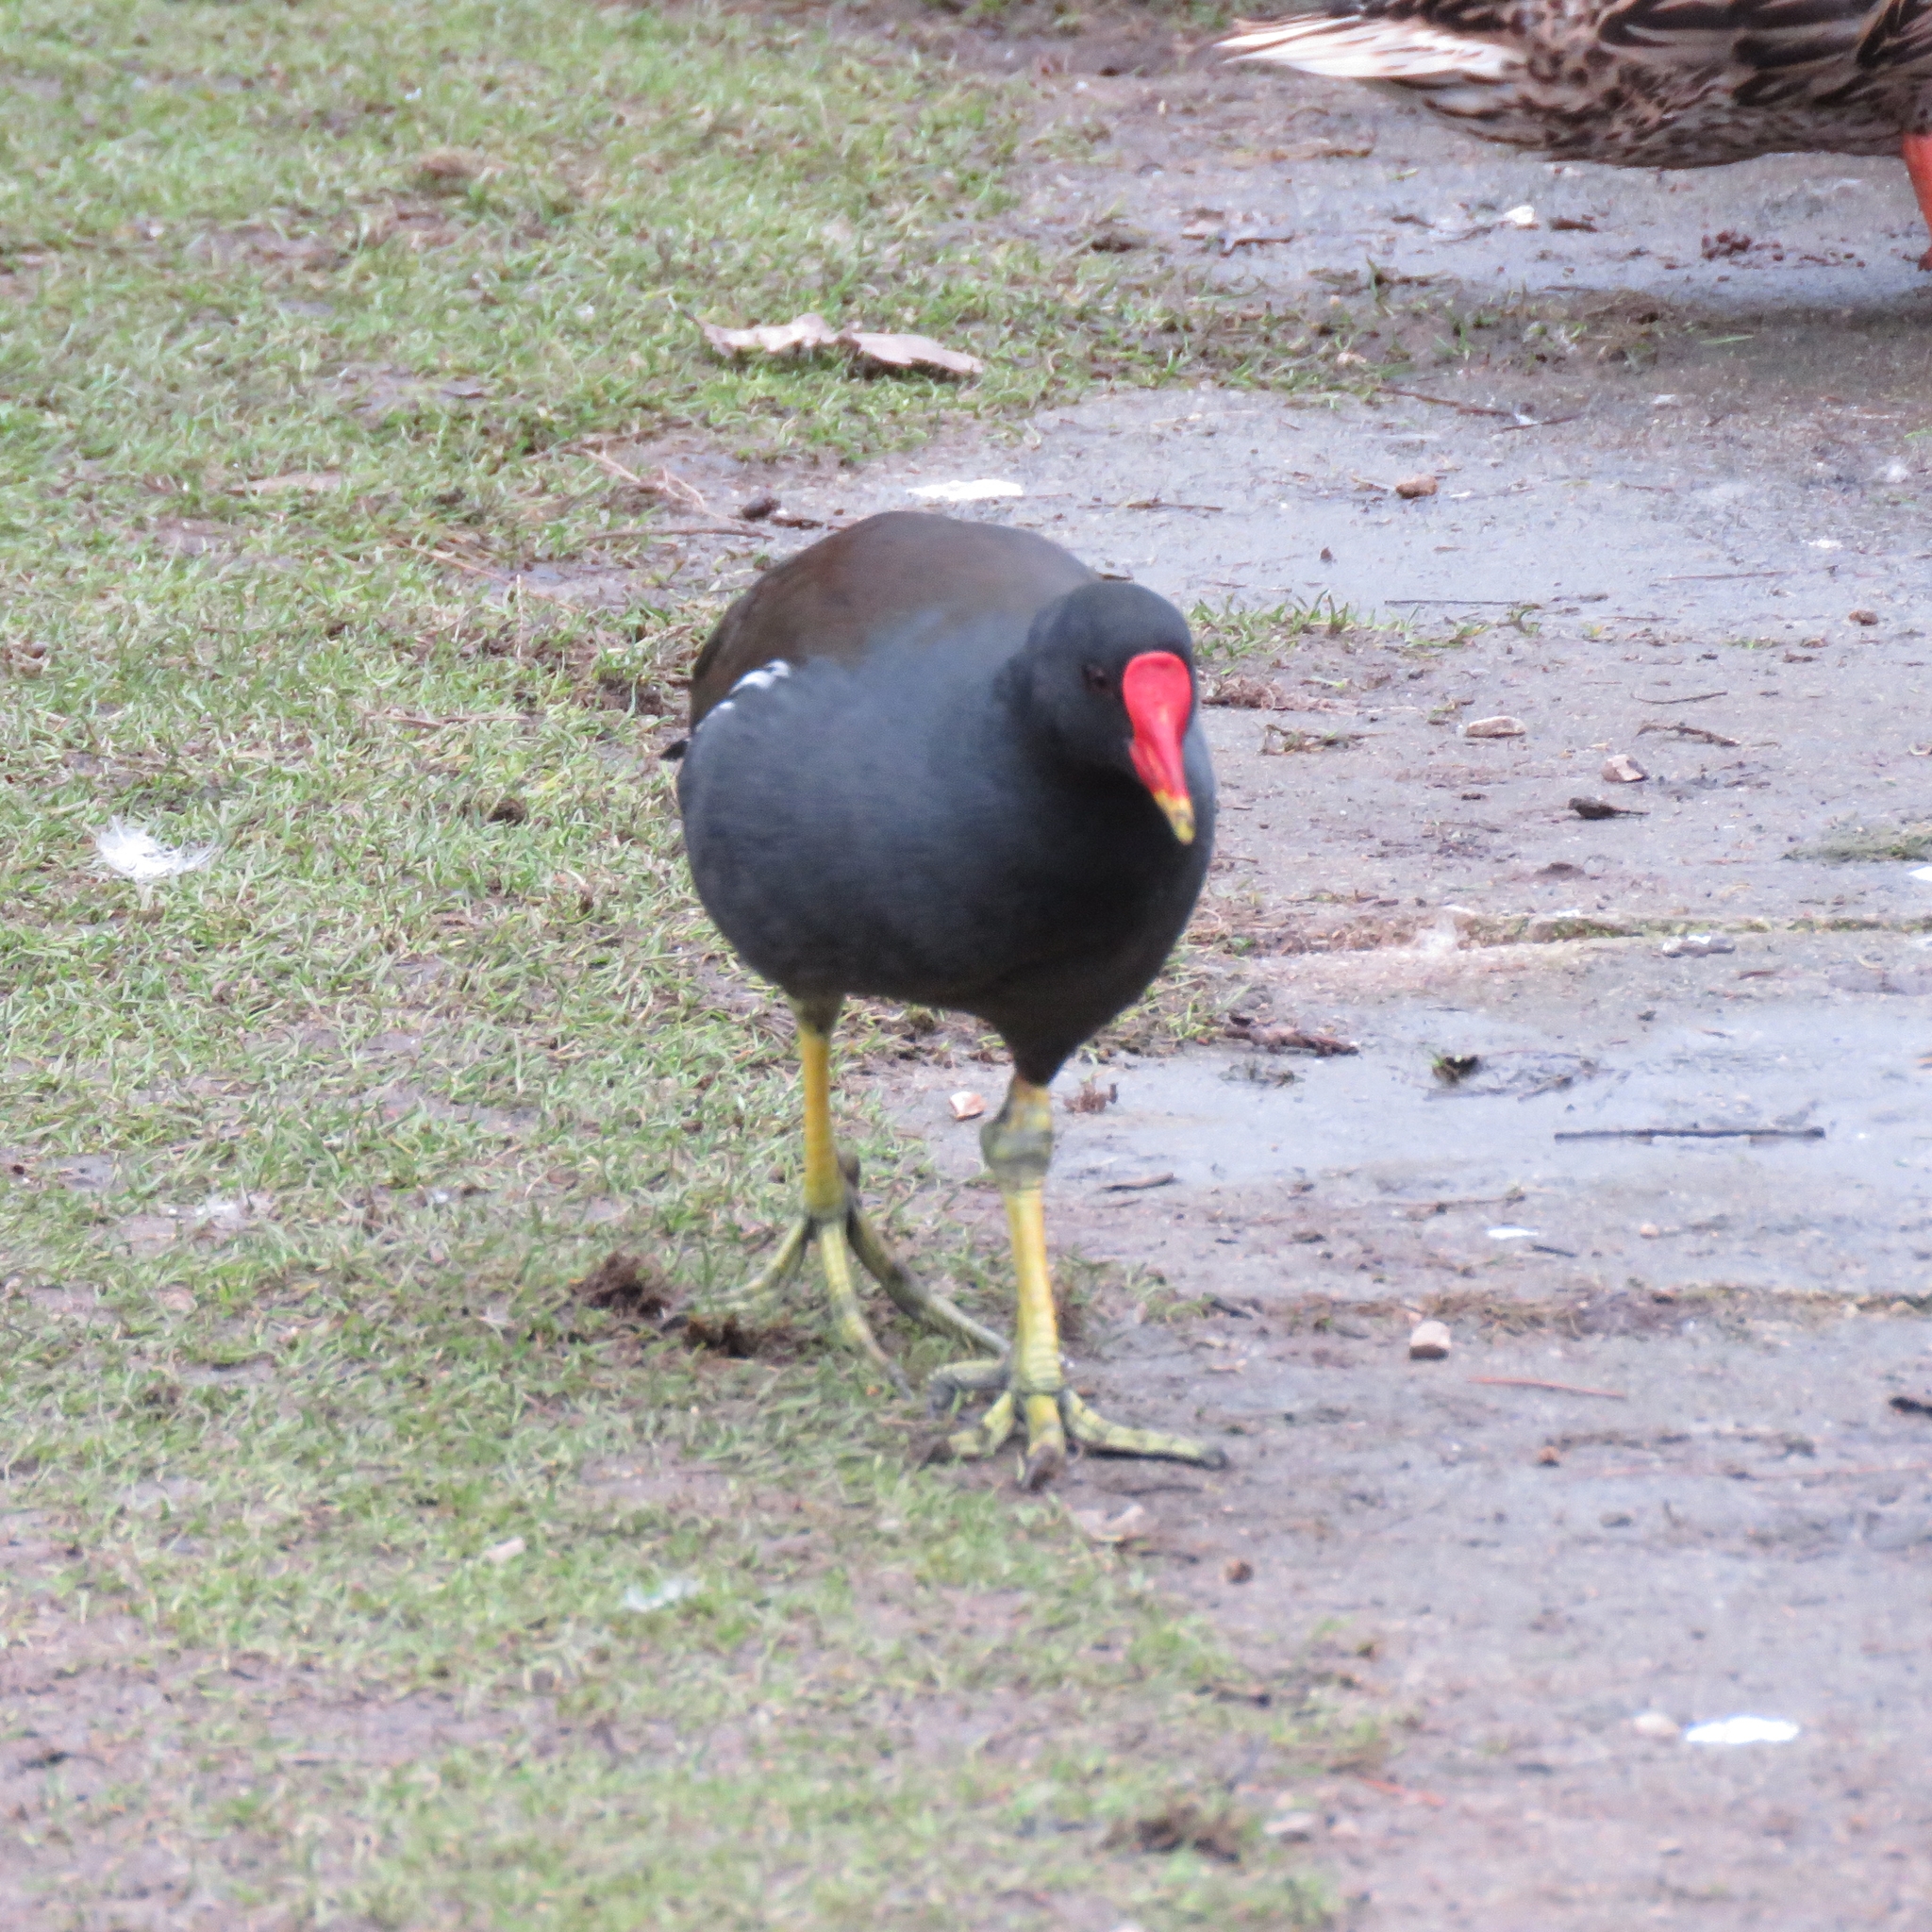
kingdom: Animalia
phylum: Chordata
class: Aves
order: Gruiformes
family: Rallidae
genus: Gallinula
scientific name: Gallinula chloropus
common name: Common moorhen
